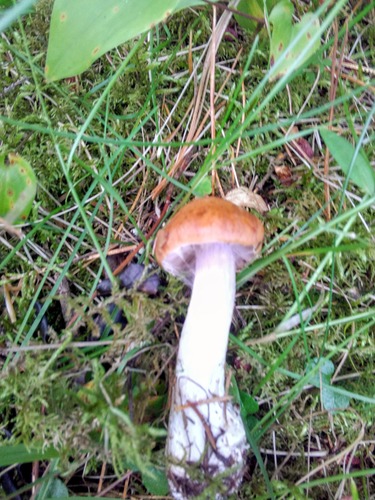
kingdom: Fungi
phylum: Basidiomycota
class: Agaricomycetes
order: Agaricales
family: Cortinariaceae
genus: Cortinarius
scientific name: Cortinarius
